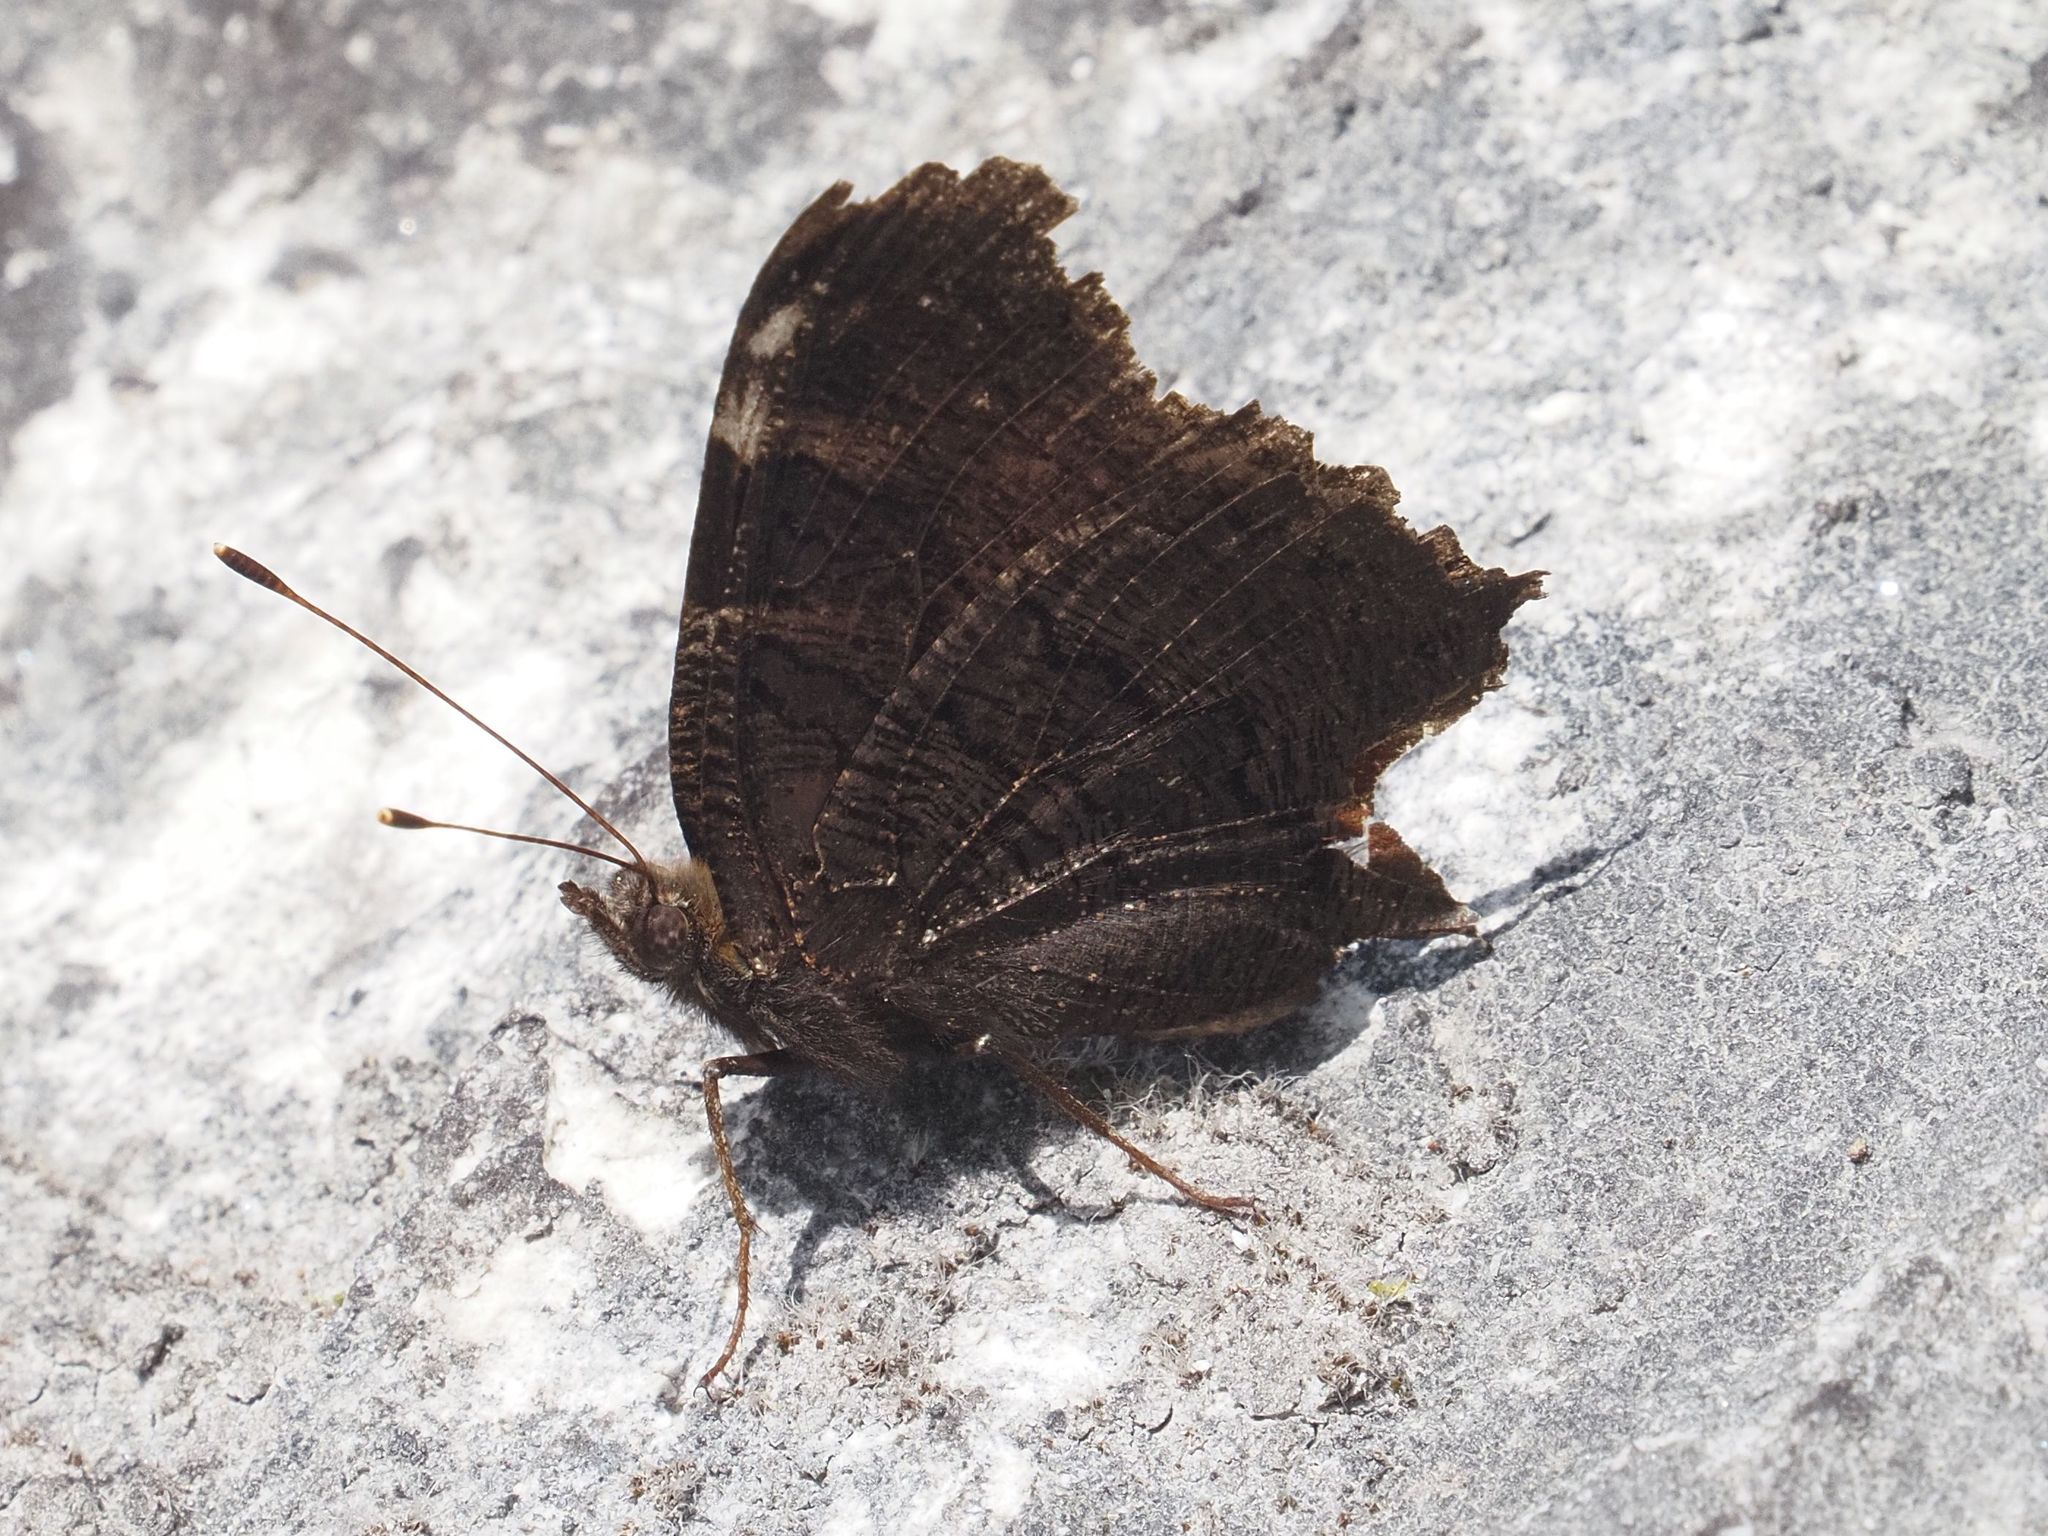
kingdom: Animalia
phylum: Arthropoda
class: Insecta
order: Lepidoptera
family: Nymphalidae
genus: Aglais
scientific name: Aglais io
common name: Peacock
